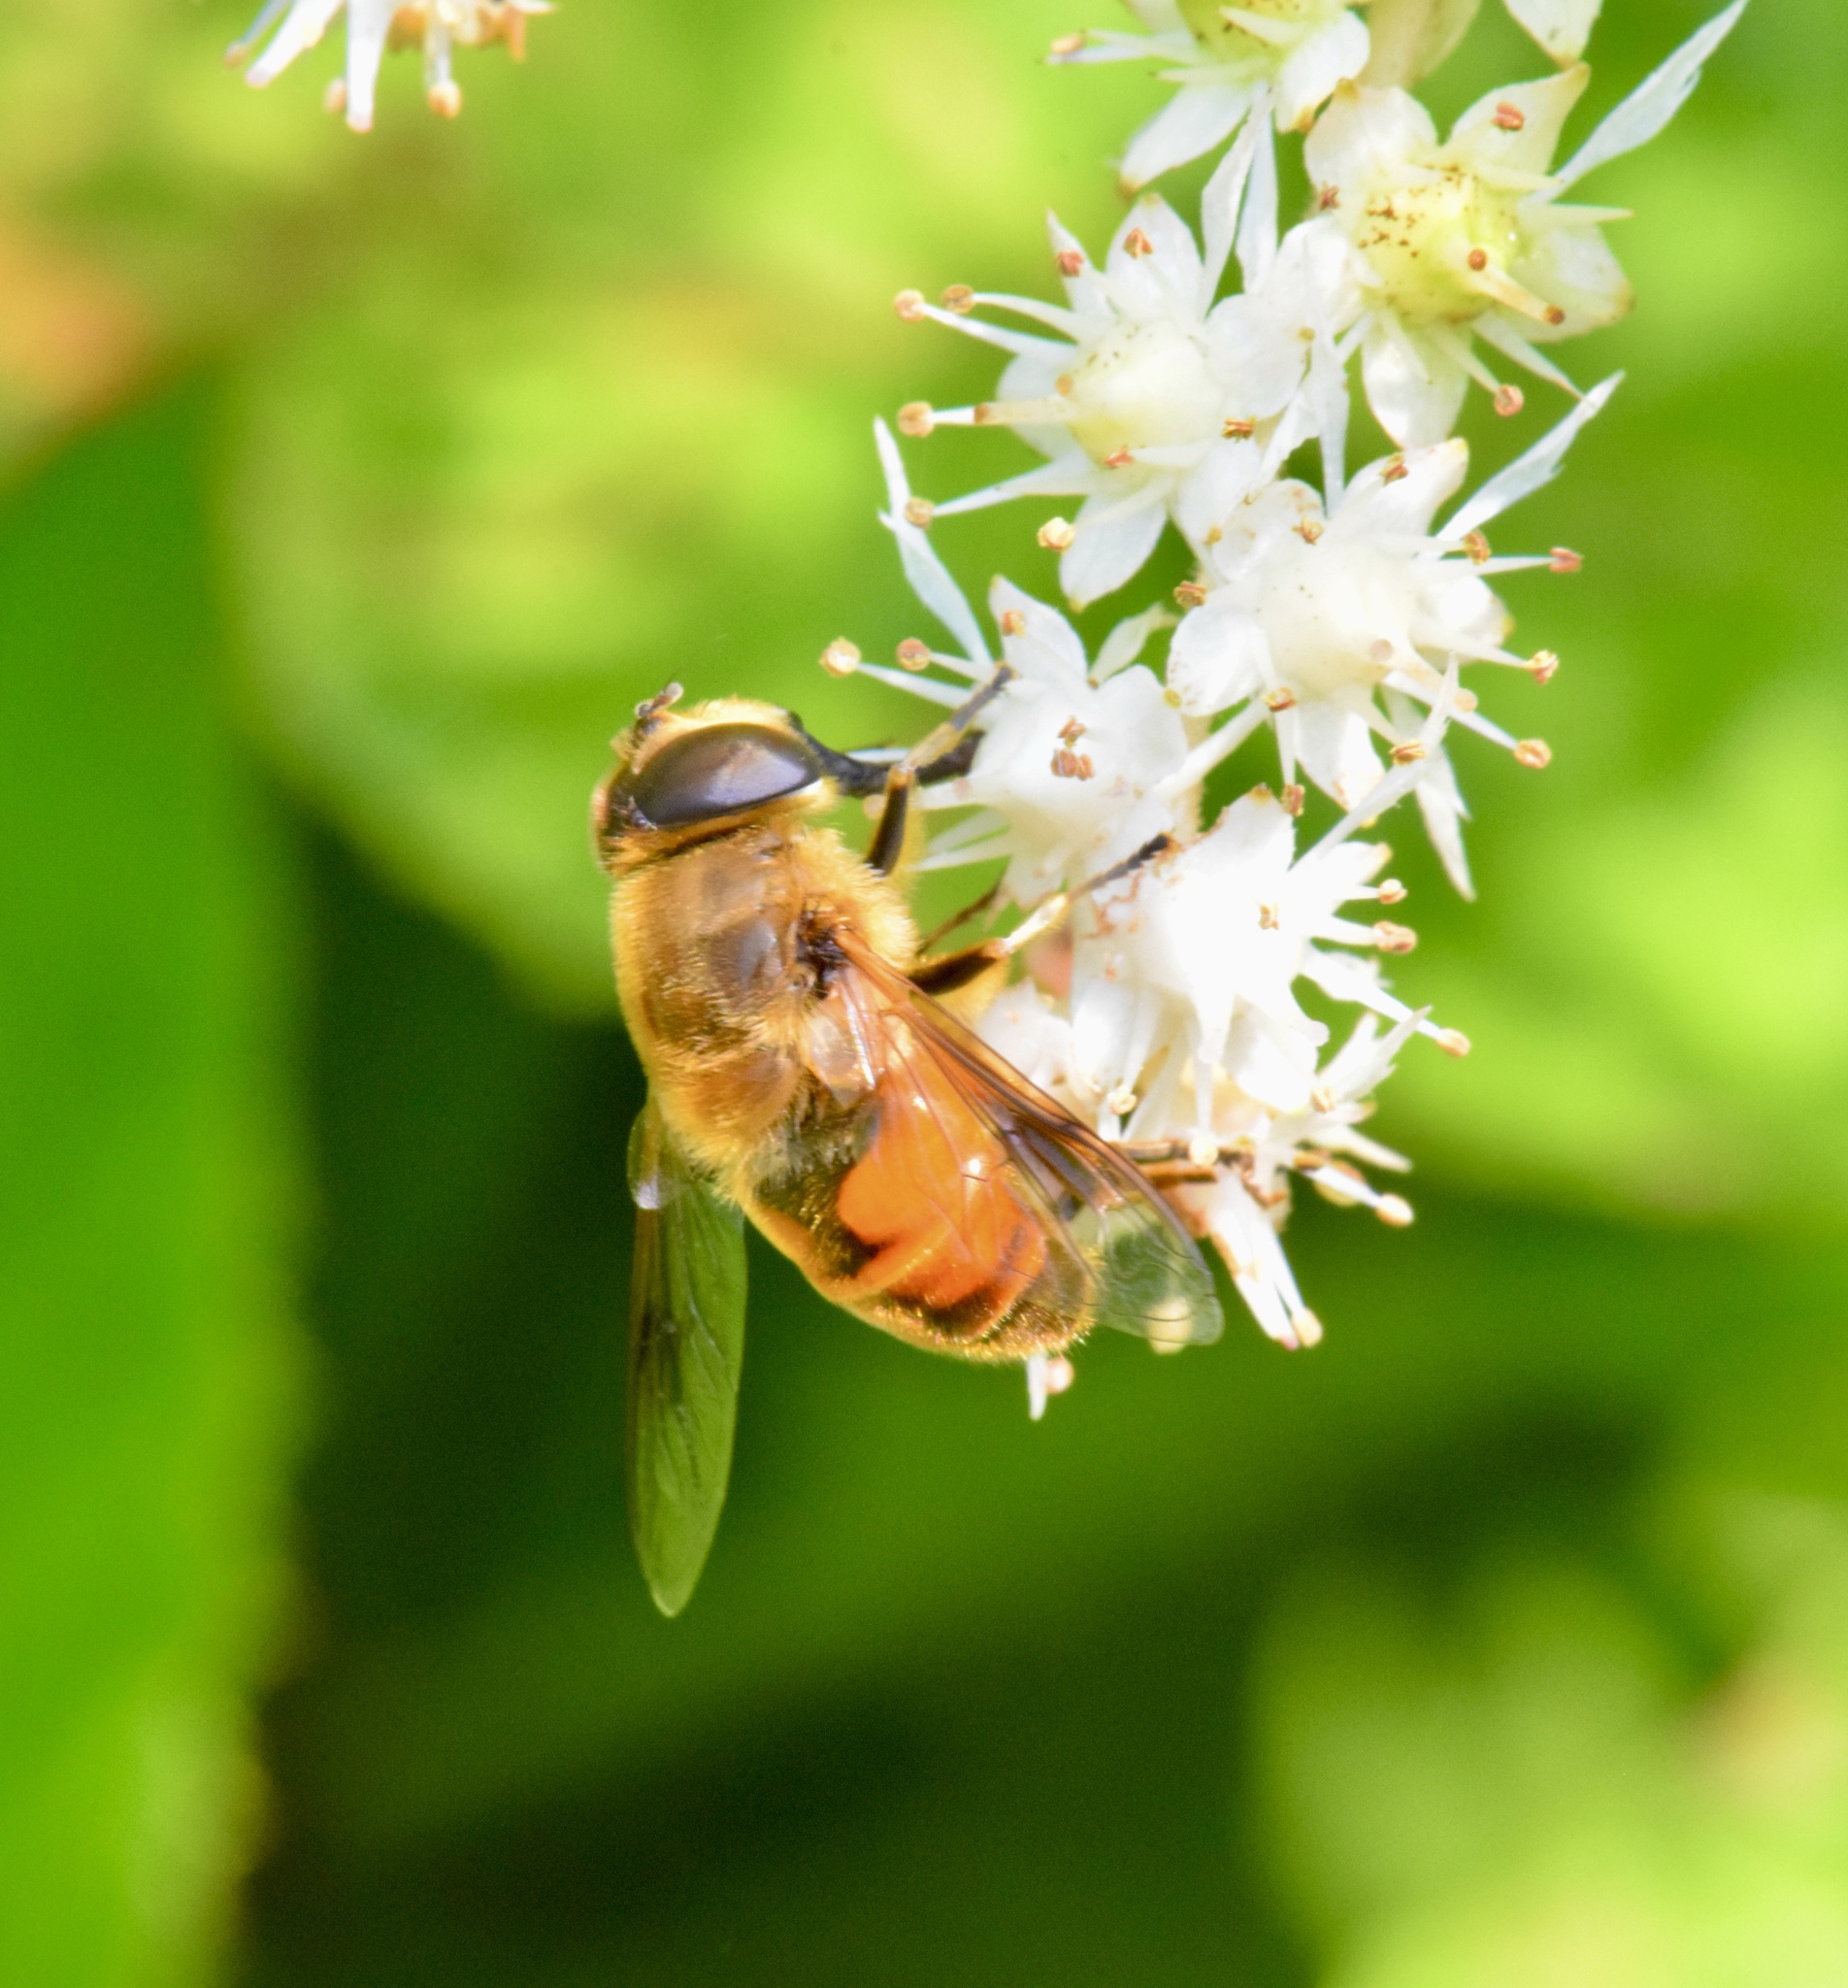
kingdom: Animalia
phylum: Arthropoda
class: Insecta
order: Diptera
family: Syrphidae
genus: Eristalis
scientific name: Eristalis tenax
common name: Drone fly
